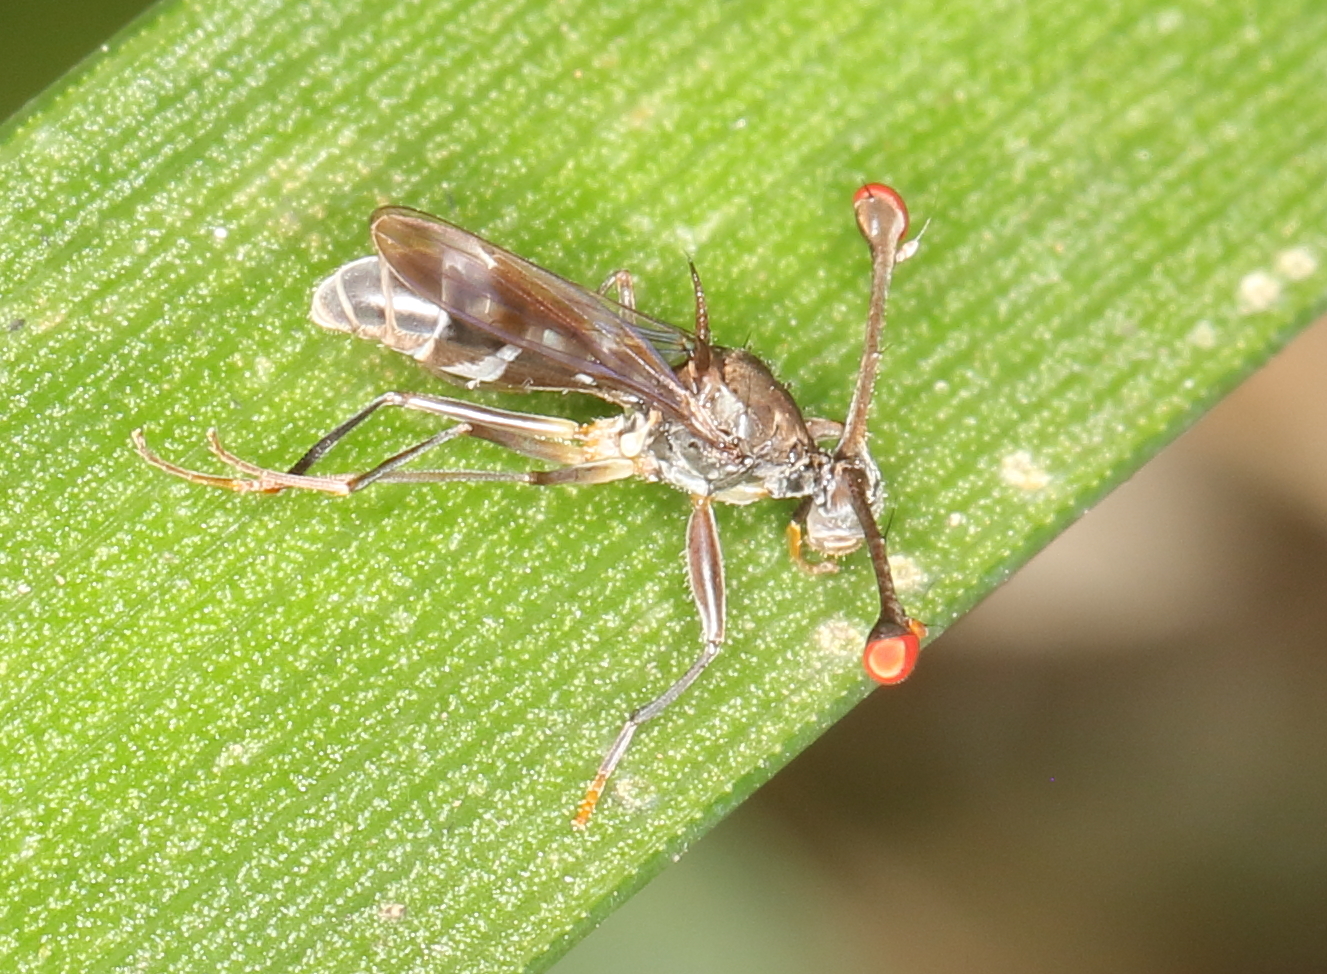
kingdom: Animalia
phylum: Arthropoda
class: Insecta
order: Diptera
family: Diopsidae
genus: Diasemopsis
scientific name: Diasemopsis obstans
